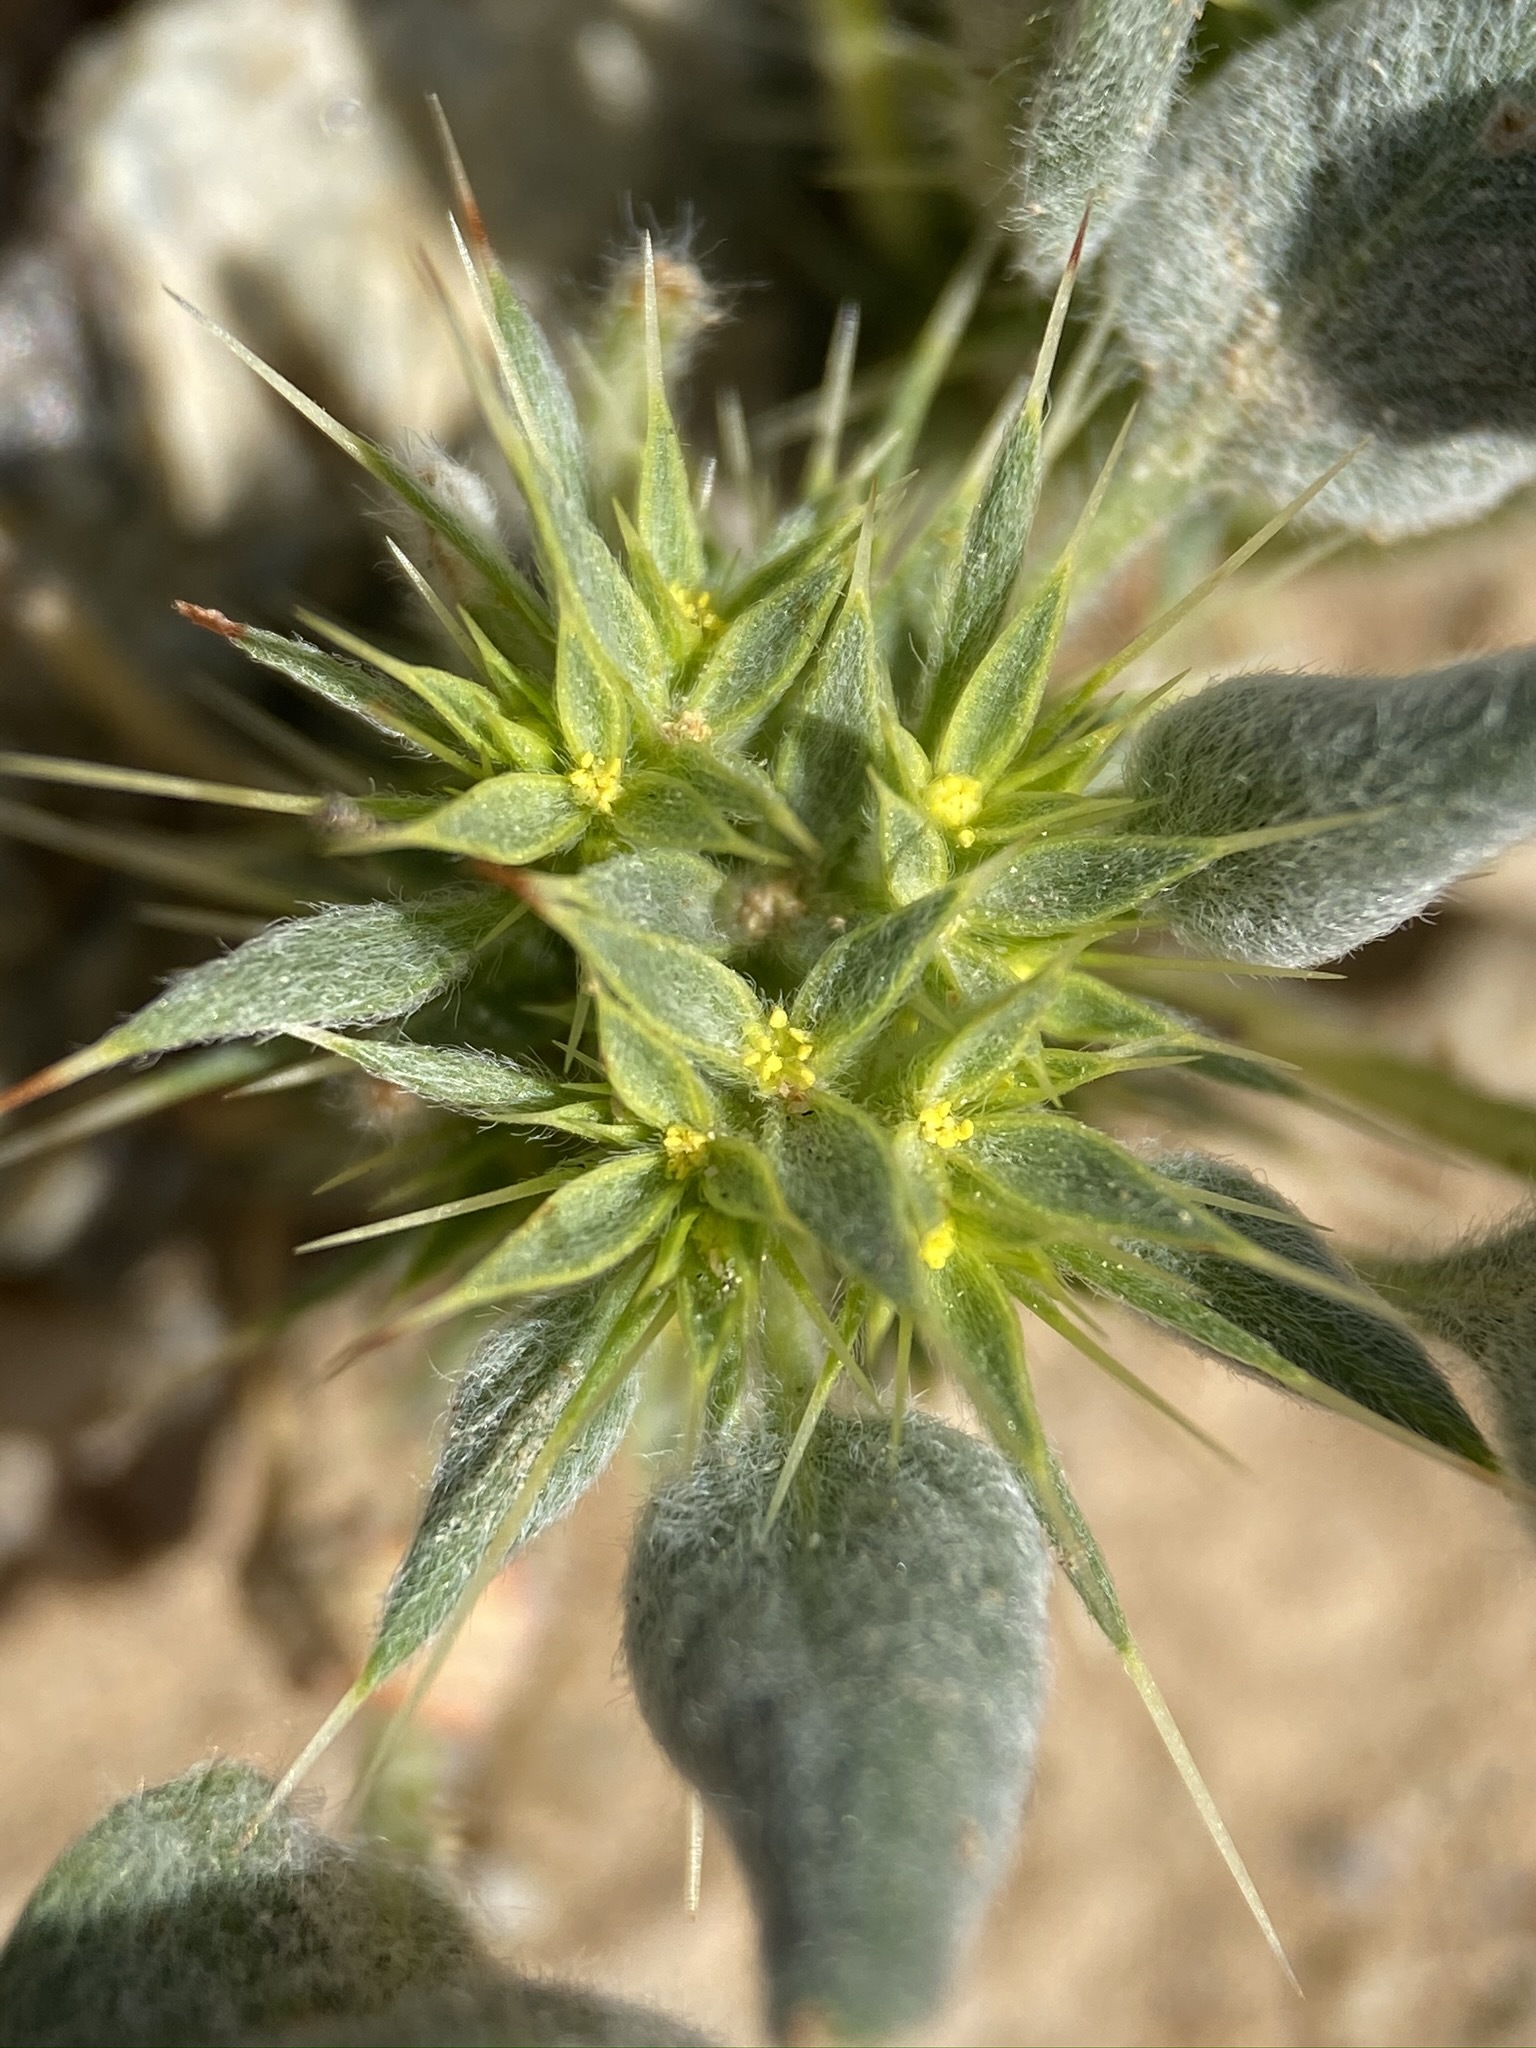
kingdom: Plantae
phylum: Tracheophyta
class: Magnoliopsida
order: Caryophyllales
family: Polygonaceae
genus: Chorizanthe
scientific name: Chorizanthe rigida
